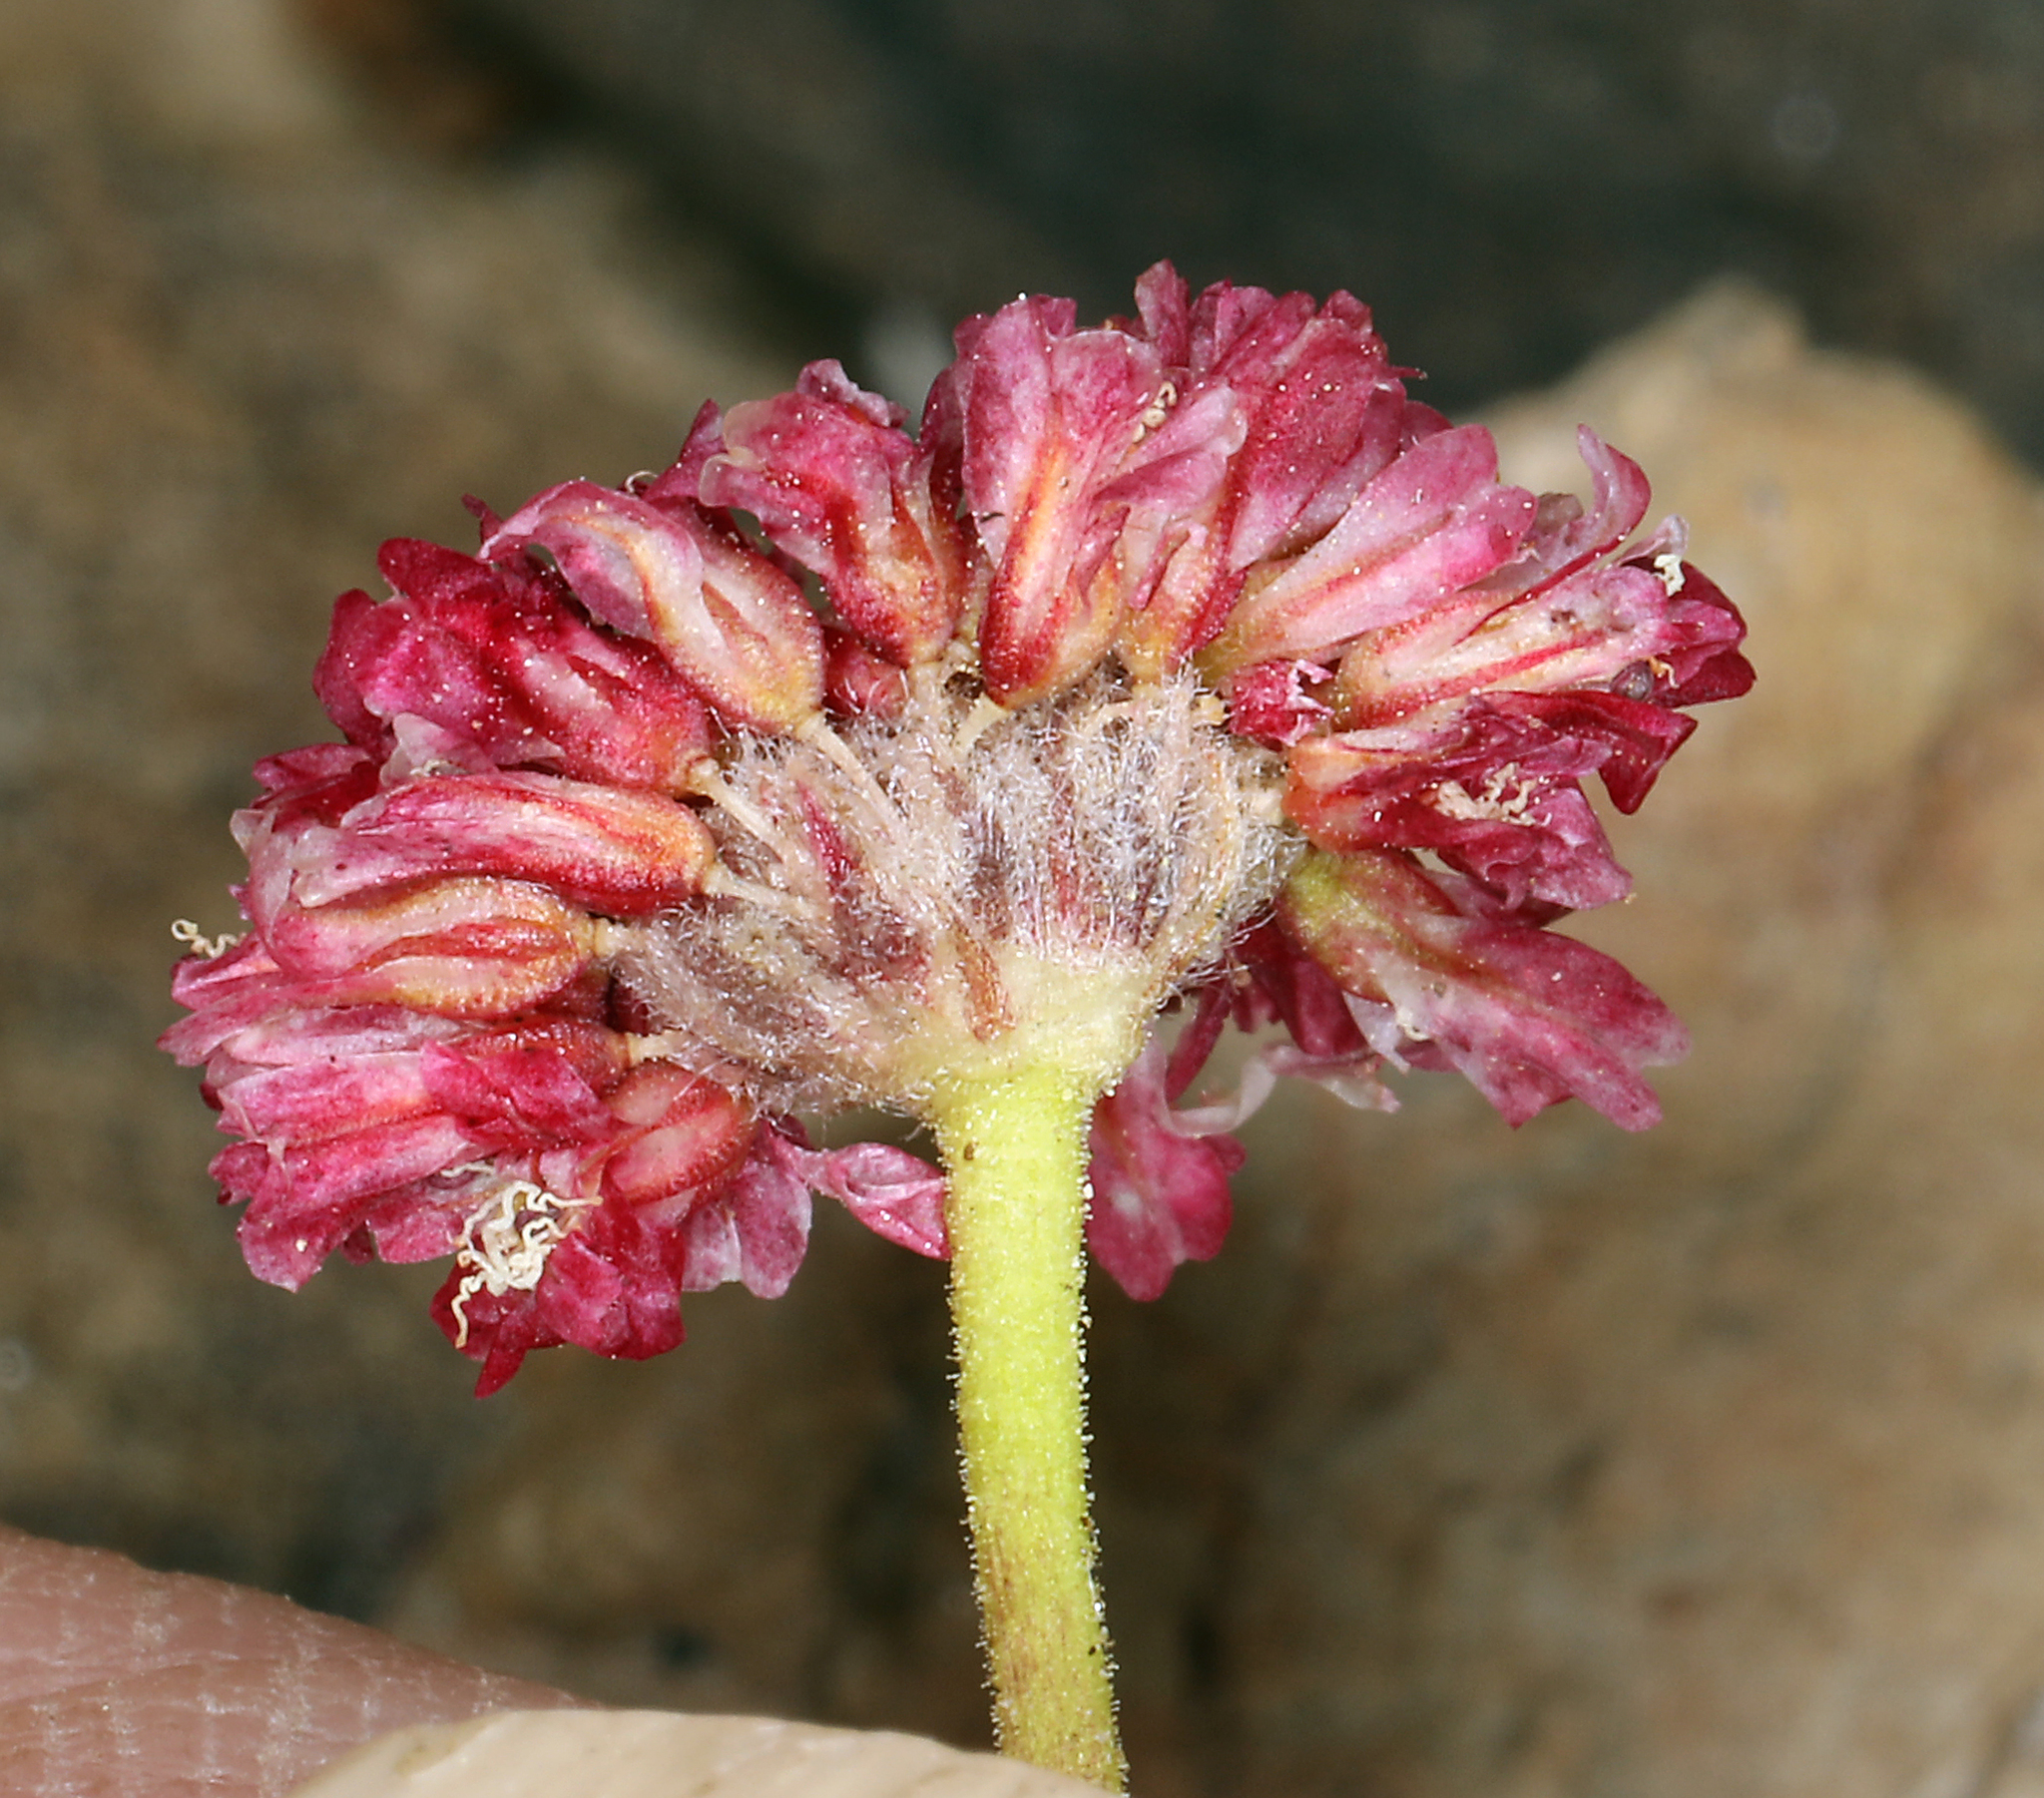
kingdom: Plantae
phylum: Tracheophyta
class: Magnoliopsida
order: Caryophyllales
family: Polygonaceae
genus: Eriogonum
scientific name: Eriogonum gracilipes
